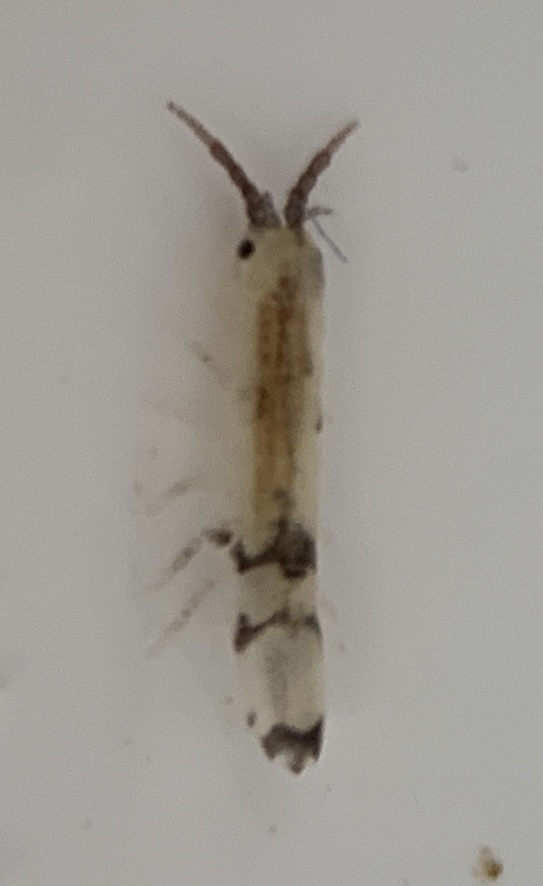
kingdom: Animalia
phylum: Arthropoda
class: Malacostraca
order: Isopoda
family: Idoteidae
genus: Idotea
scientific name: Idotea balthica
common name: Baltic isopod
